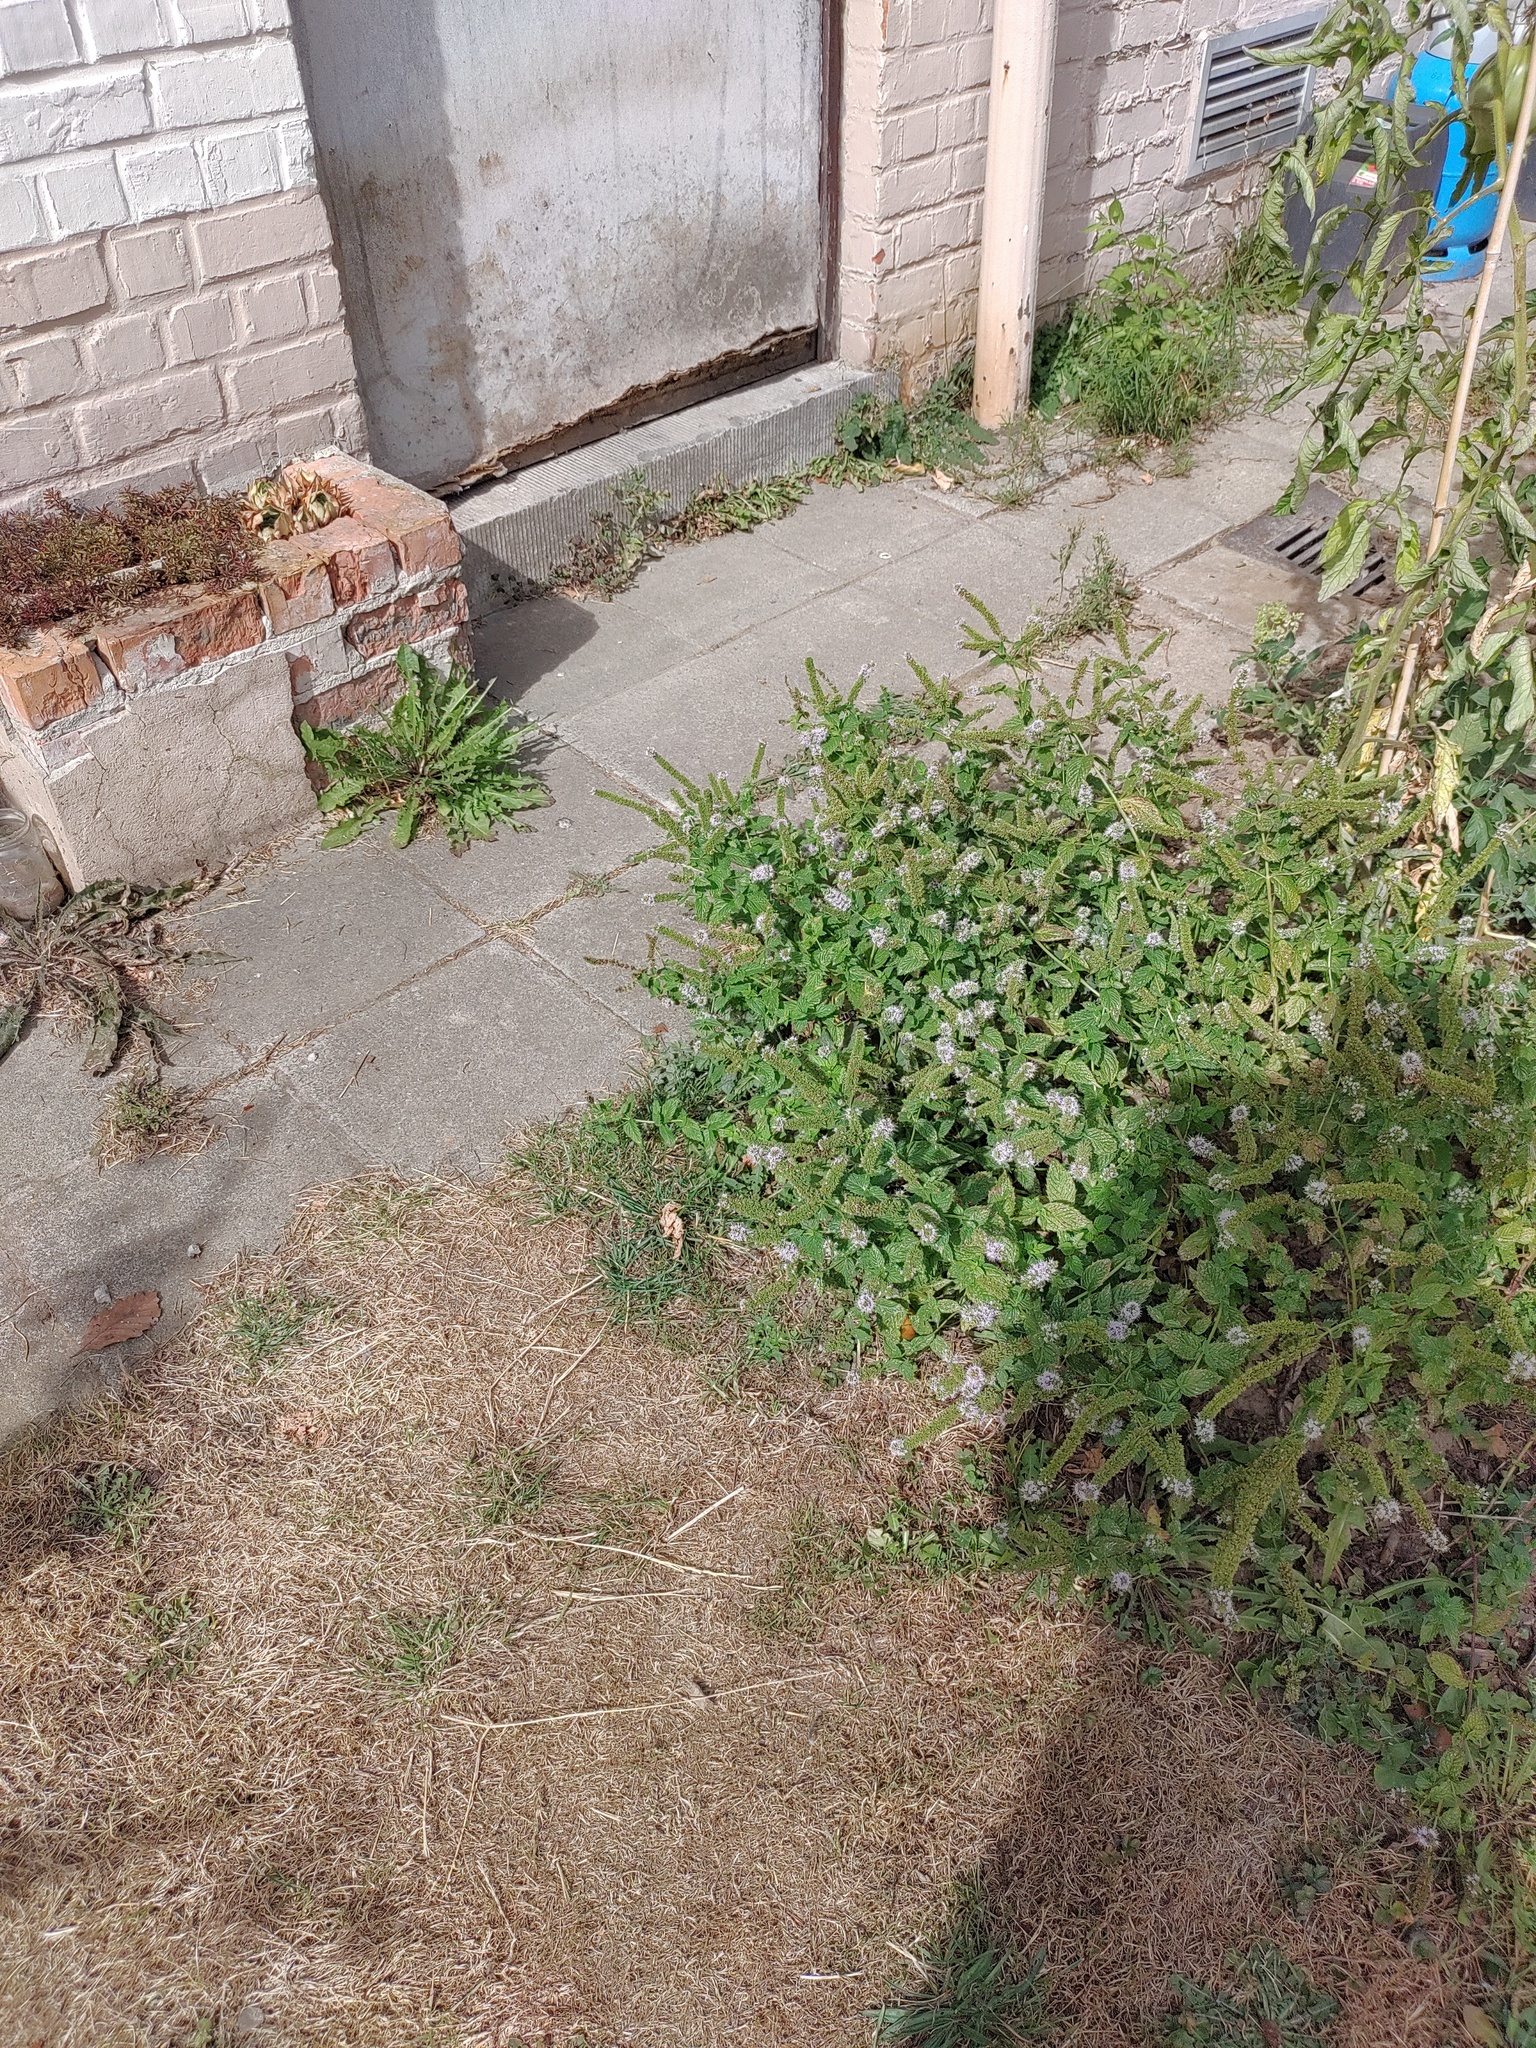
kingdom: Animalia
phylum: Arthropoda
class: Insecta
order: Hymenoptera
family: Vespidae
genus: Vespa
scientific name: Vespa velutina
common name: Asian hornet
